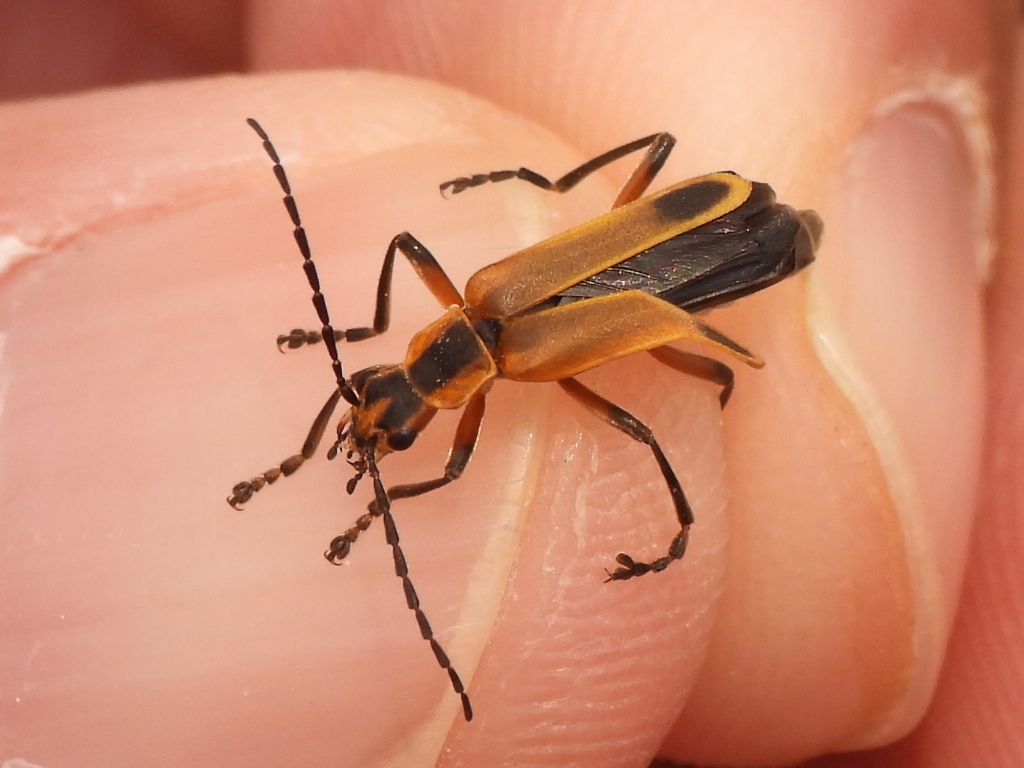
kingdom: Animalia
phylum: Arthropoda
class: Insecta
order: Coleoptera
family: Cantharidae
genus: Chauliognathus
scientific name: Chauliognathus marginatus
